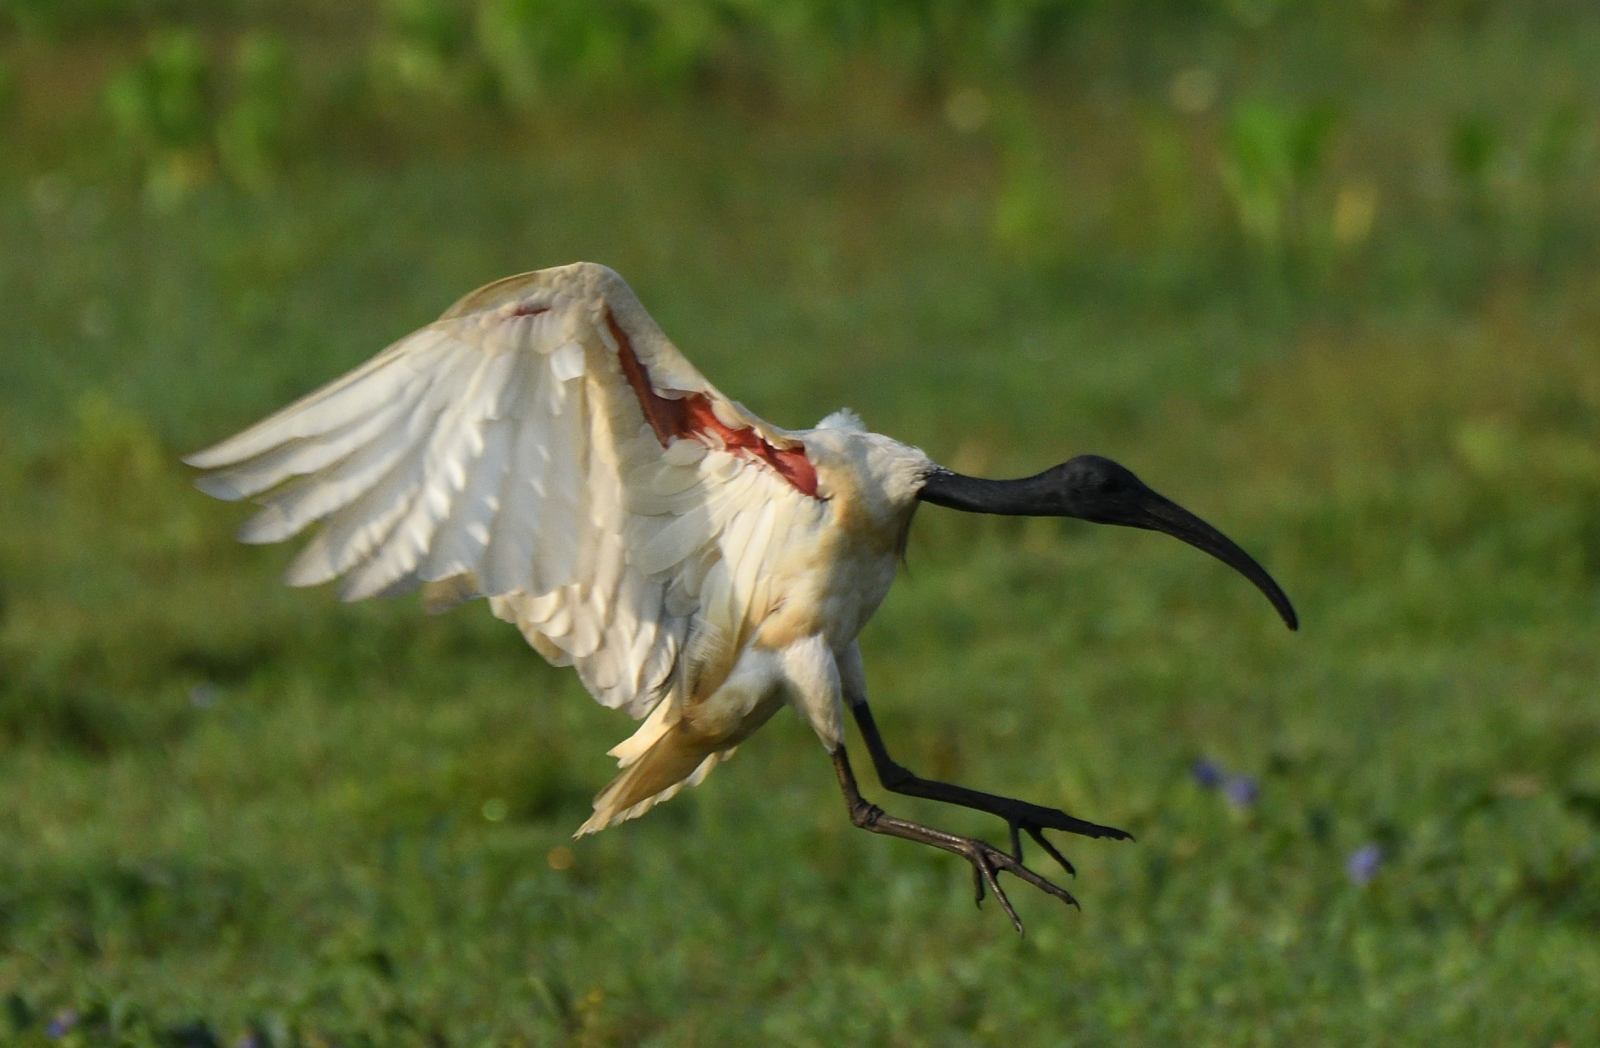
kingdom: Animalia
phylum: Chordata
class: Aves
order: Pelecaniformes
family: Threskiornithidae
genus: Threskiornis
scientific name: Threskiornis melanocephalus
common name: Black-headed ibis
